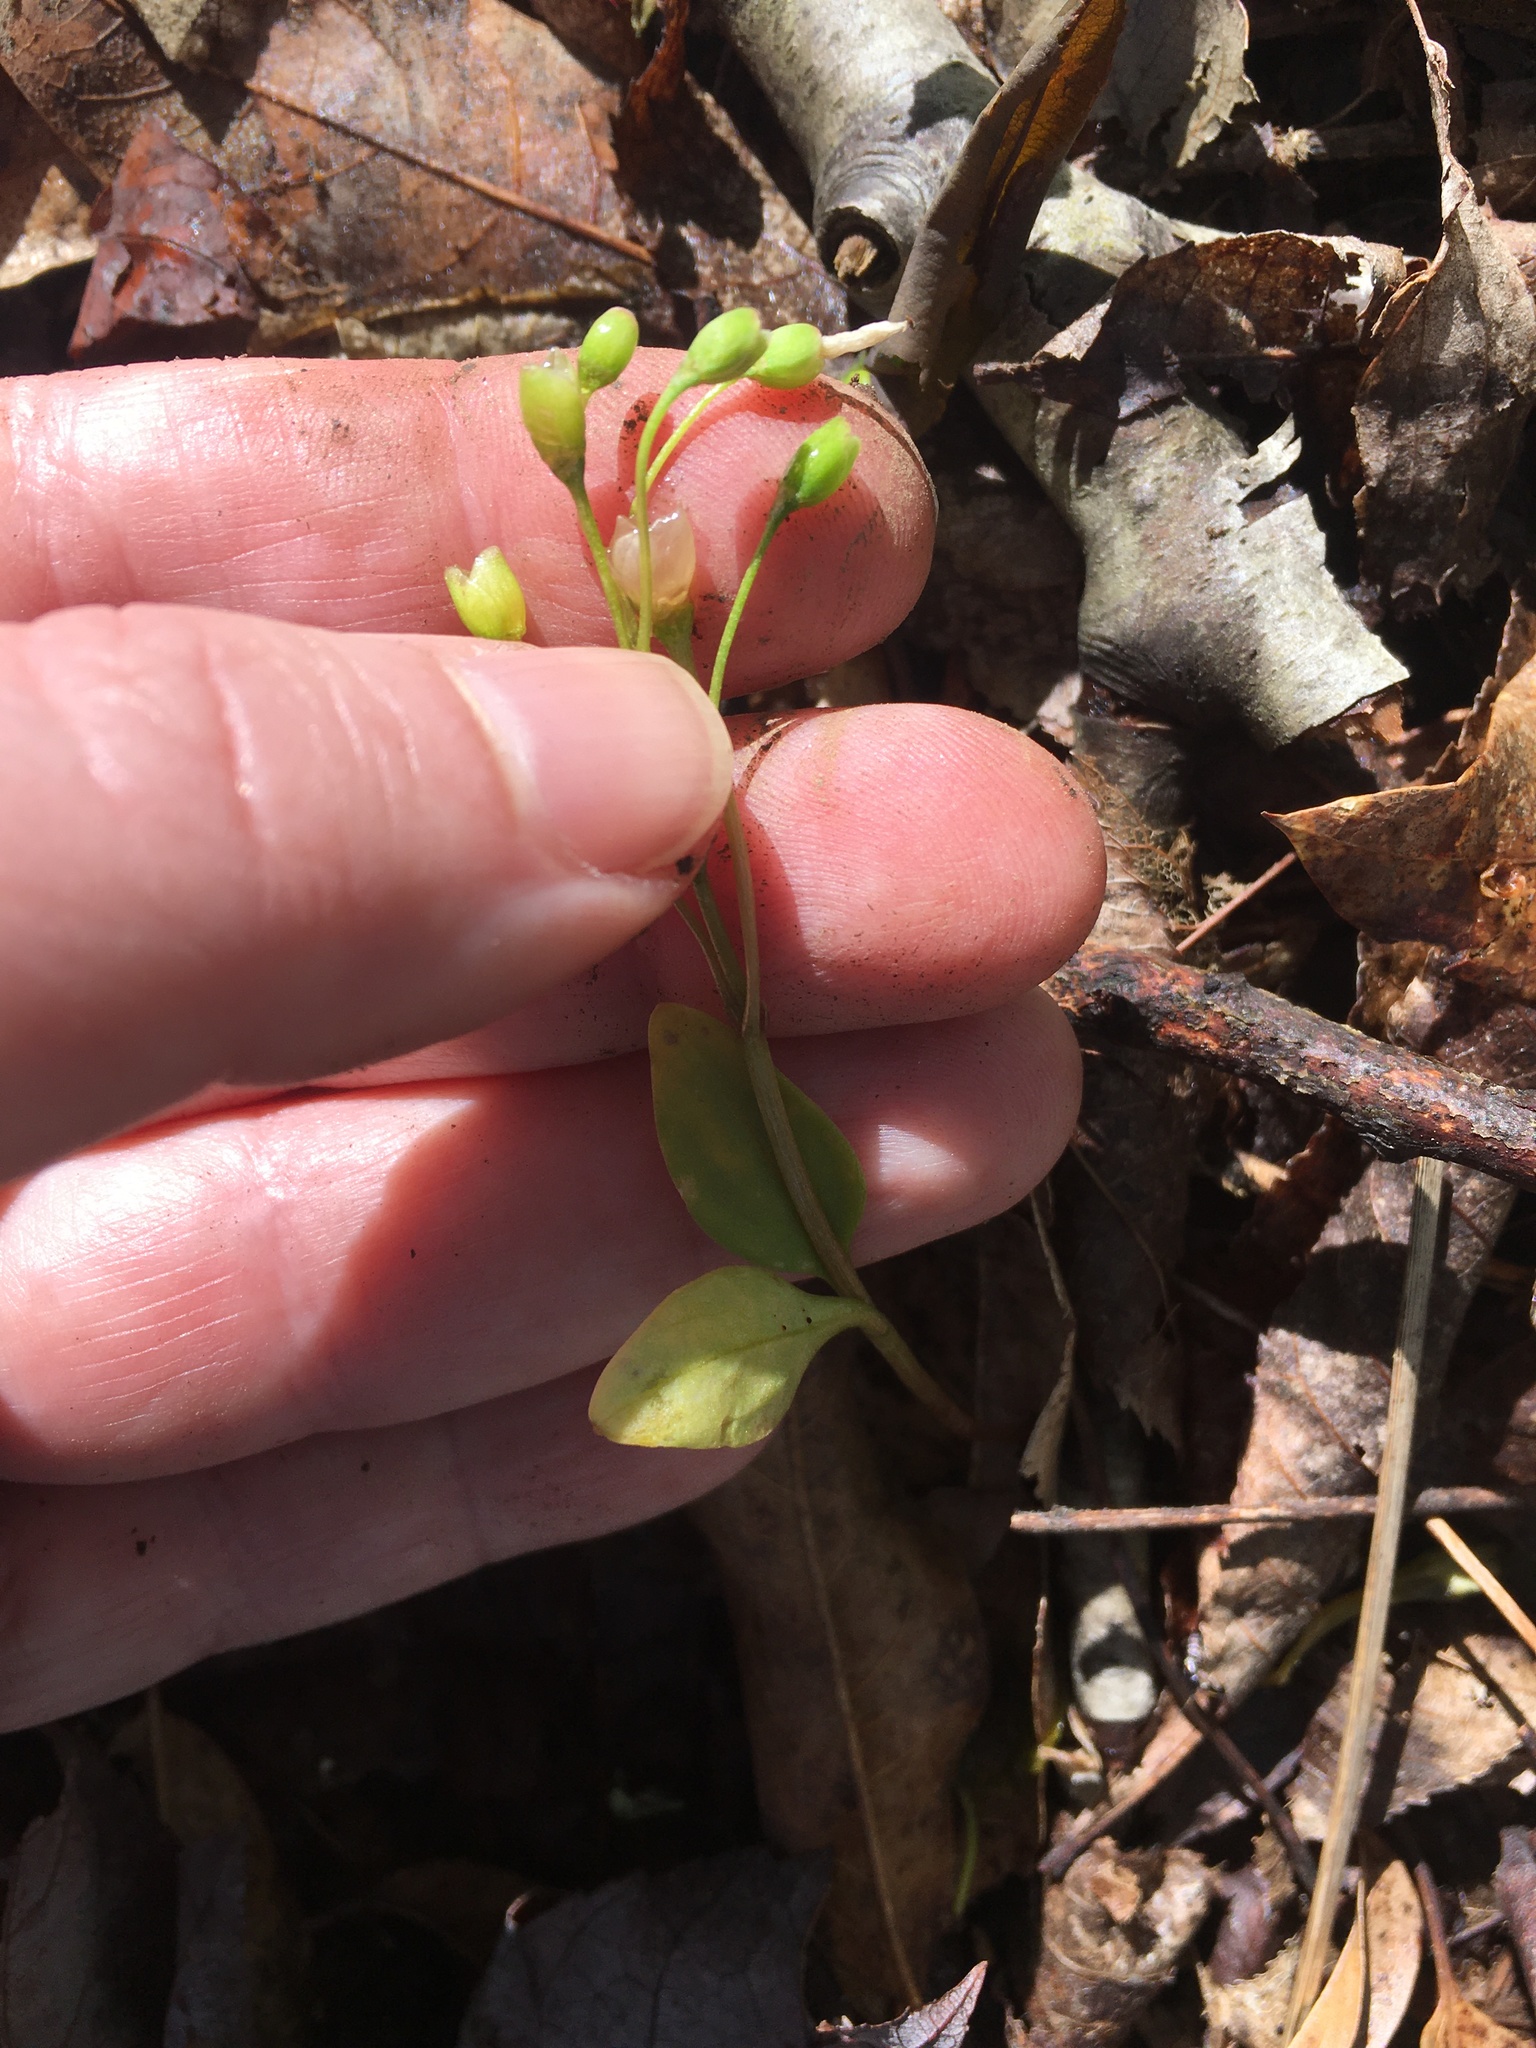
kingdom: Plantae
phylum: Tracheophyta
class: Magnoliopsida
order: Caryophyllales
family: Montiaceae
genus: Claytonia
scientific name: Claytonia caroliniana
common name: Carolina spring beauty
